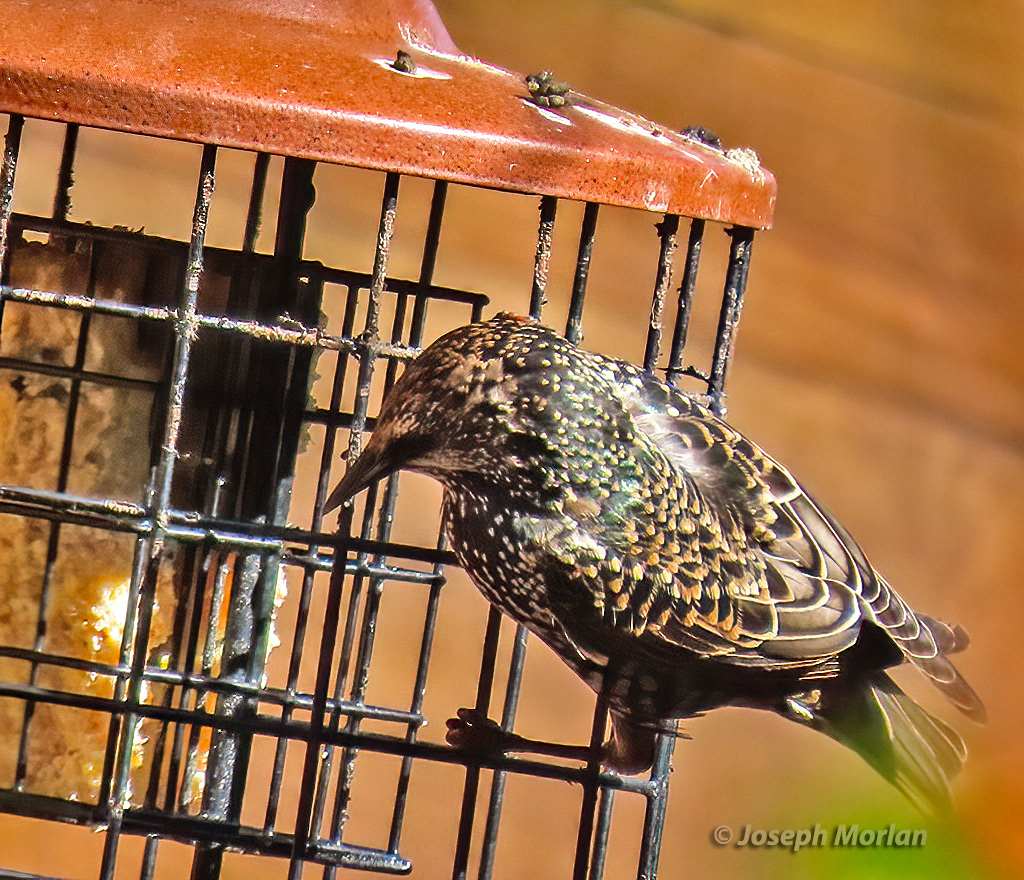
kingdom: Animalia
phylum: Chordata
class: Aves
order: Passeriformes
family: Sturnidae
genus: Sturnus
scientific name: Sturnus vulgaris
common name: Common starling
